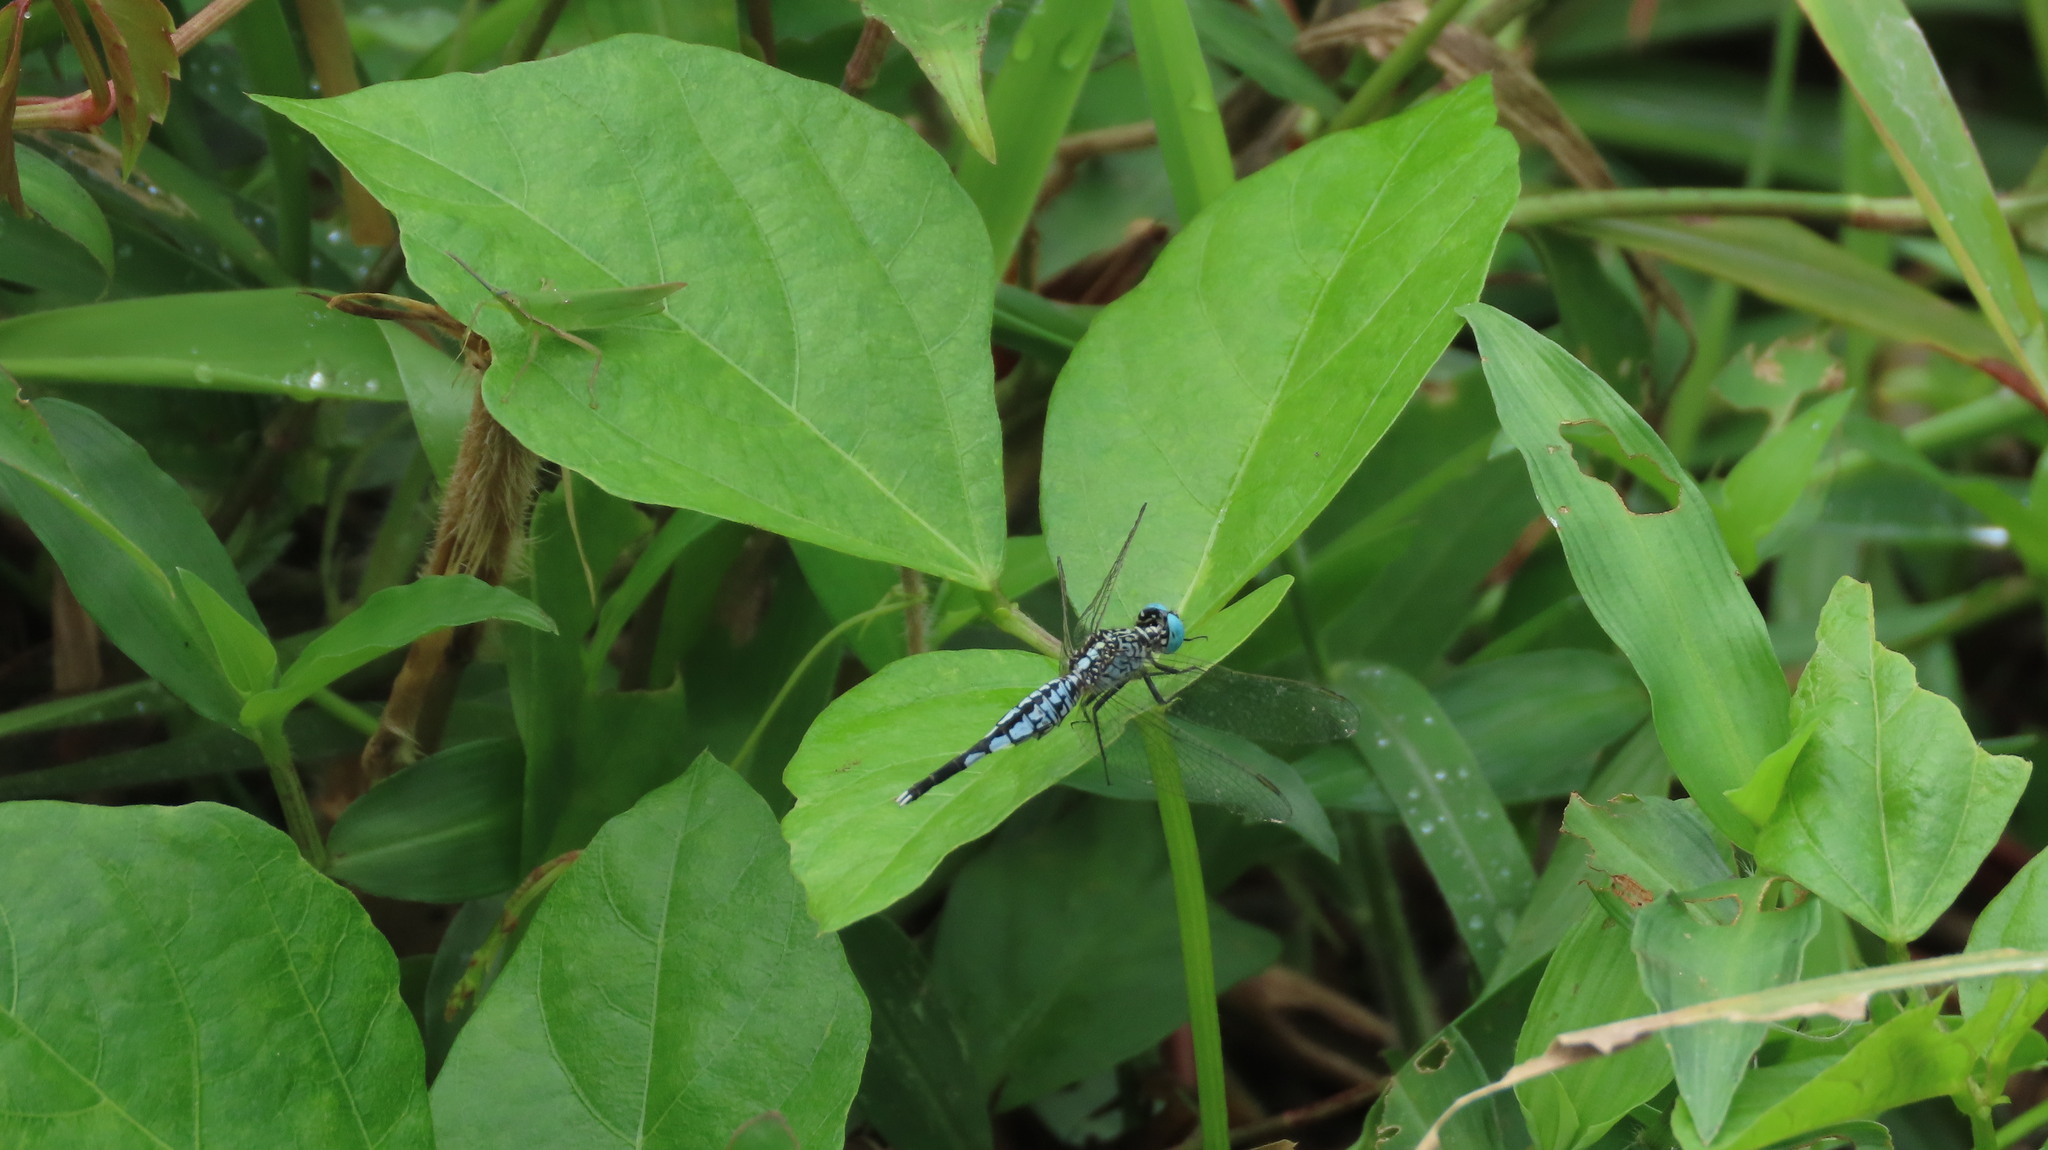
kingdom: Animalia
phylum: Arthropoda
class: Insecta
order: Odonata
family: Libellulidae
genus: Acisoma
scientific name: Acisoma panorpoides
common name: Asian pintail
